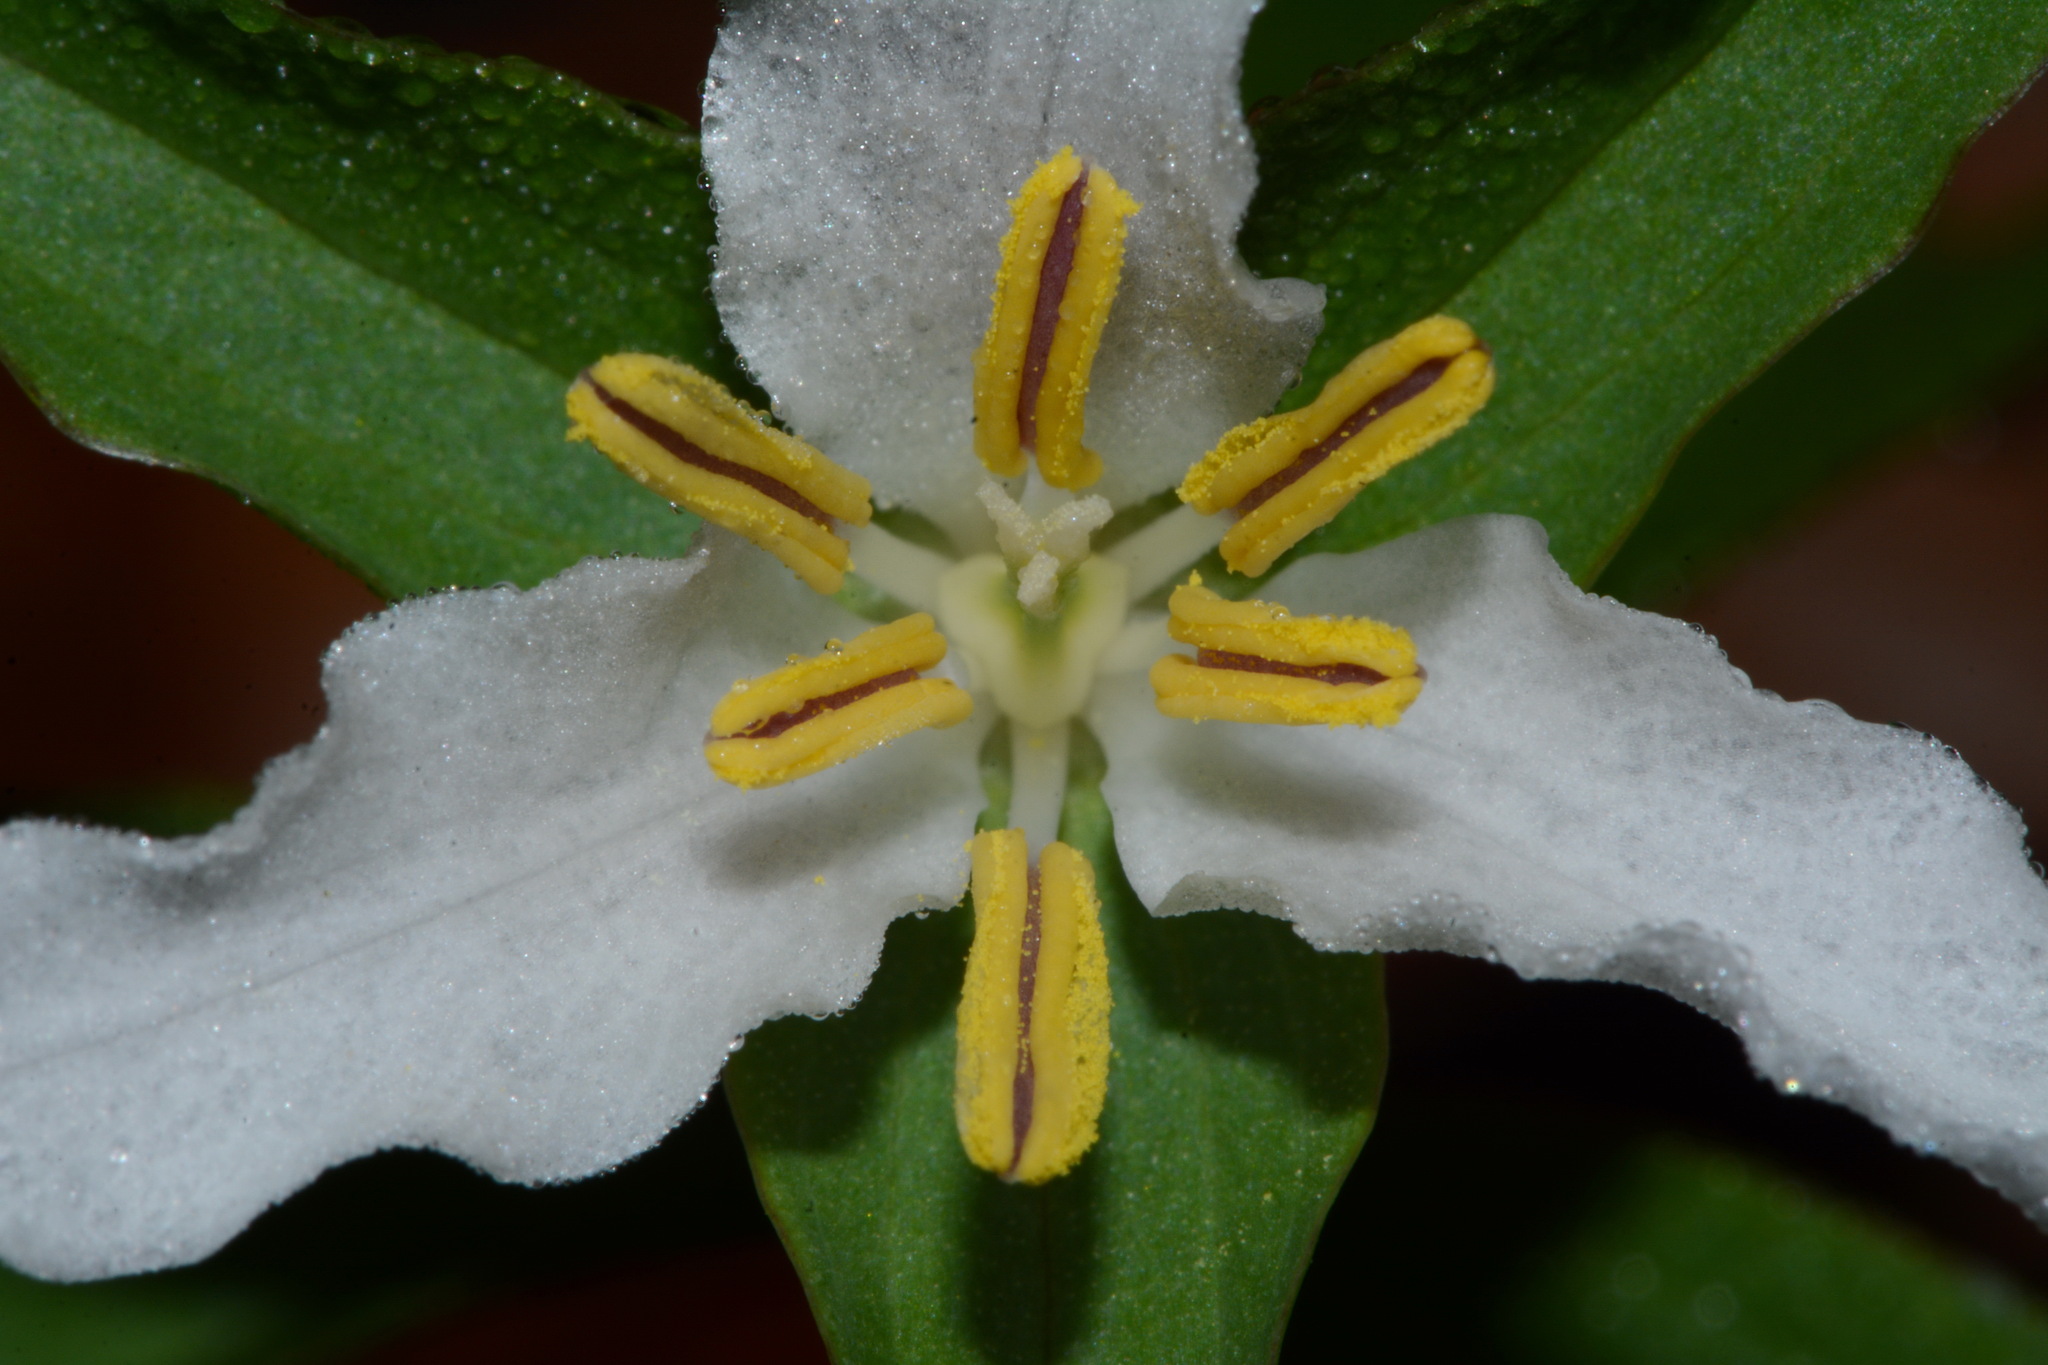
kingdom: Plantae
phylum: Tracheophyta
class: Liliopsida
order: Liliales
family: Melanthiaceae
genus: Trillium
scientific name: Trillium pusillum
